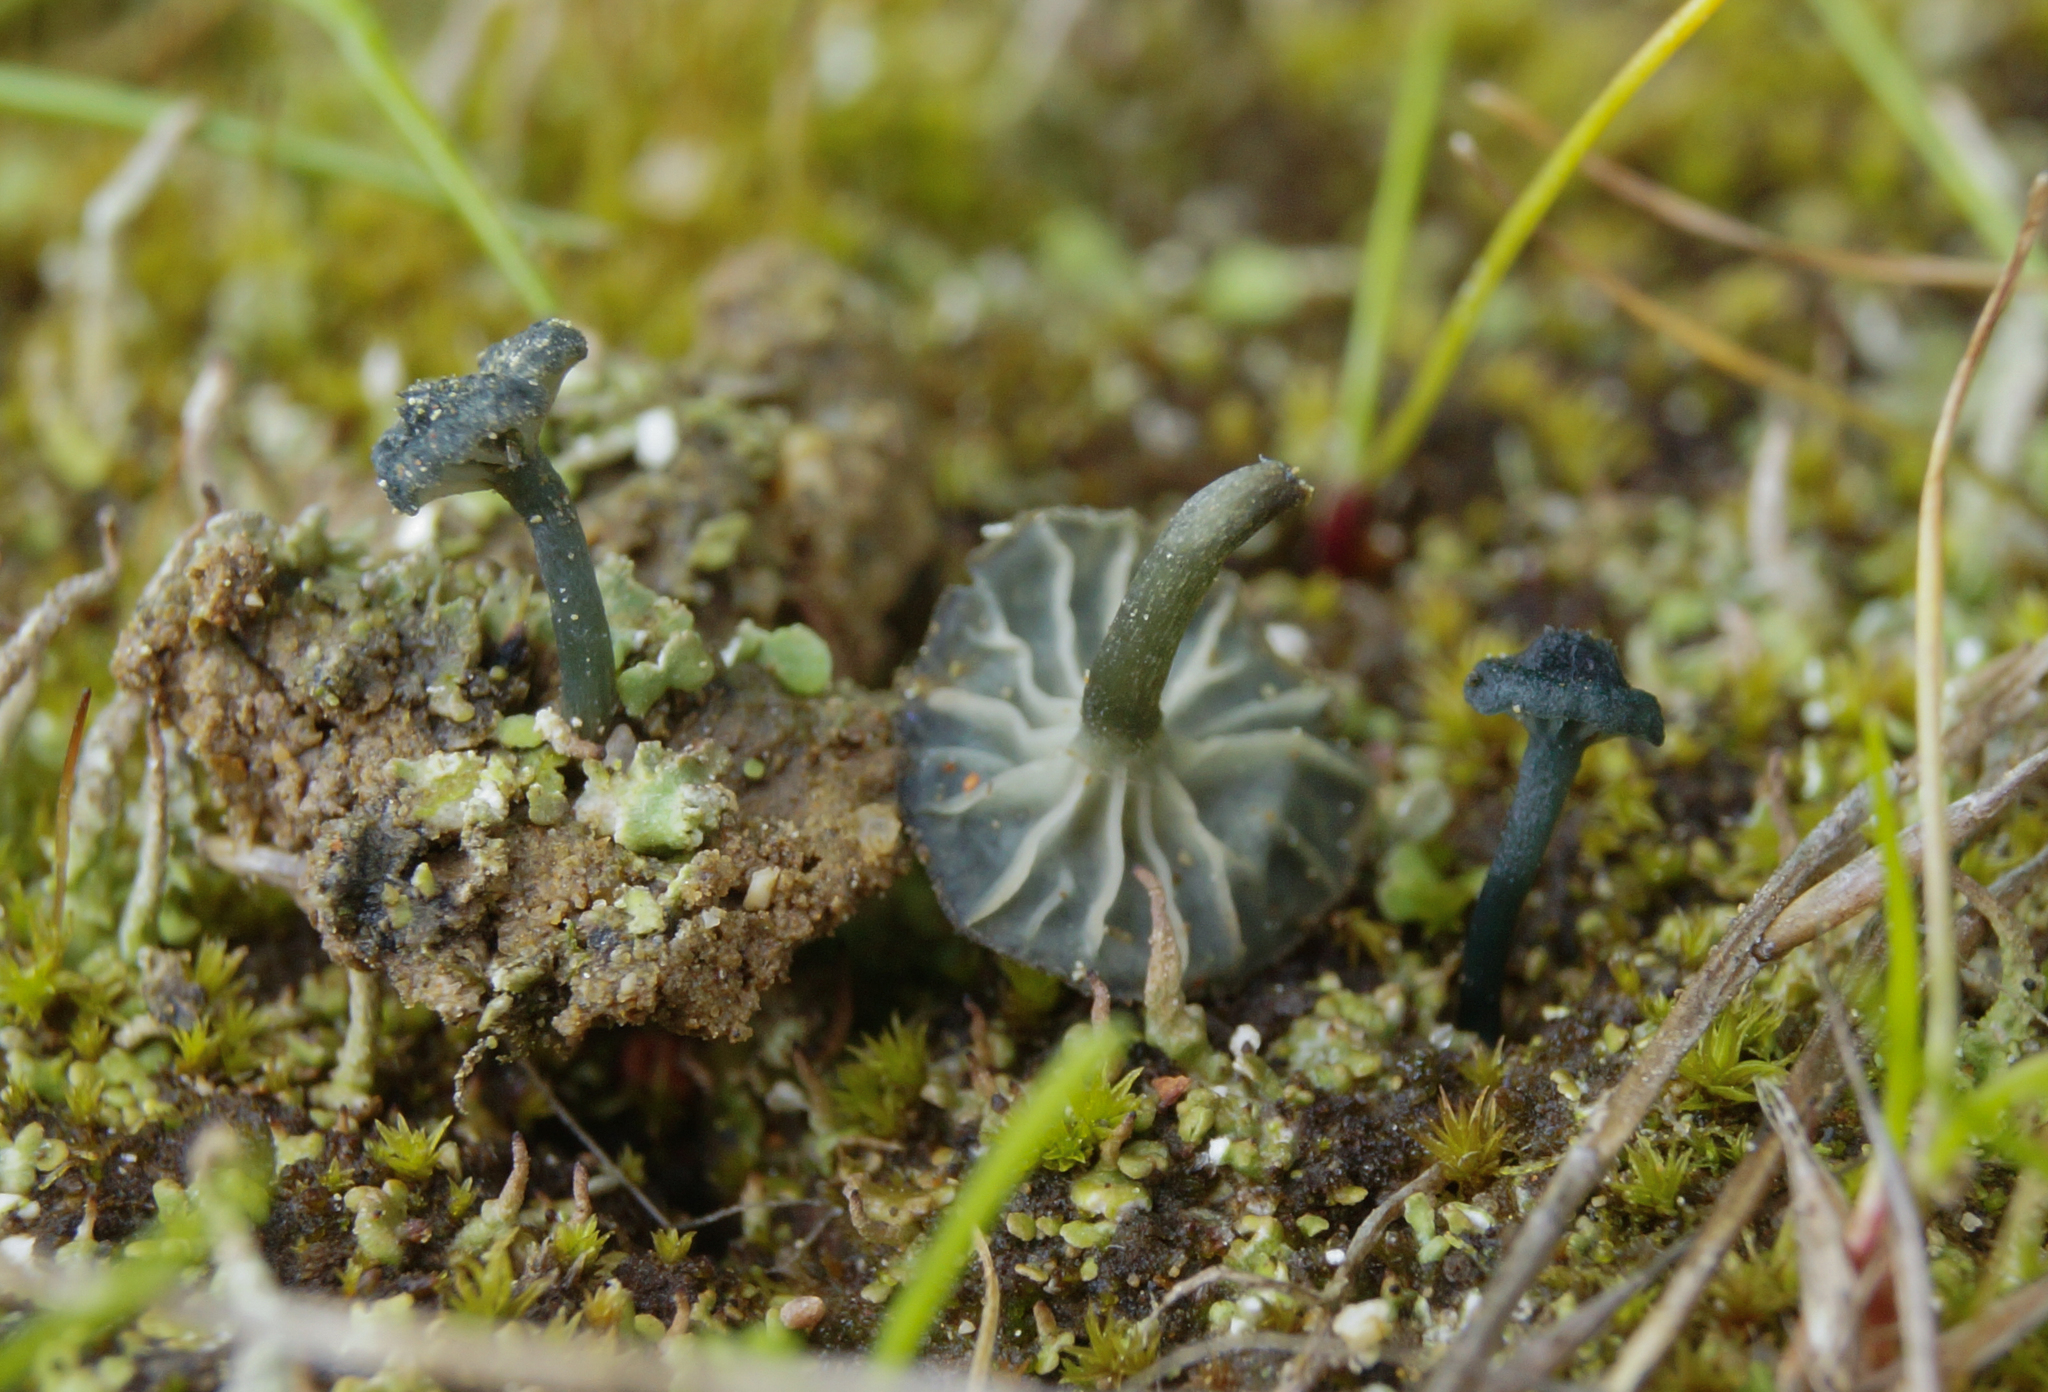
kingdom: Fungi
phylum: Basidiomycota
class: Agaricomycetes
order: Agaricales
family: Hygrophoraceae
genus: Arrhenia
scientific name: Arrhenia chlorocyanea
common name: Verdigris navel
